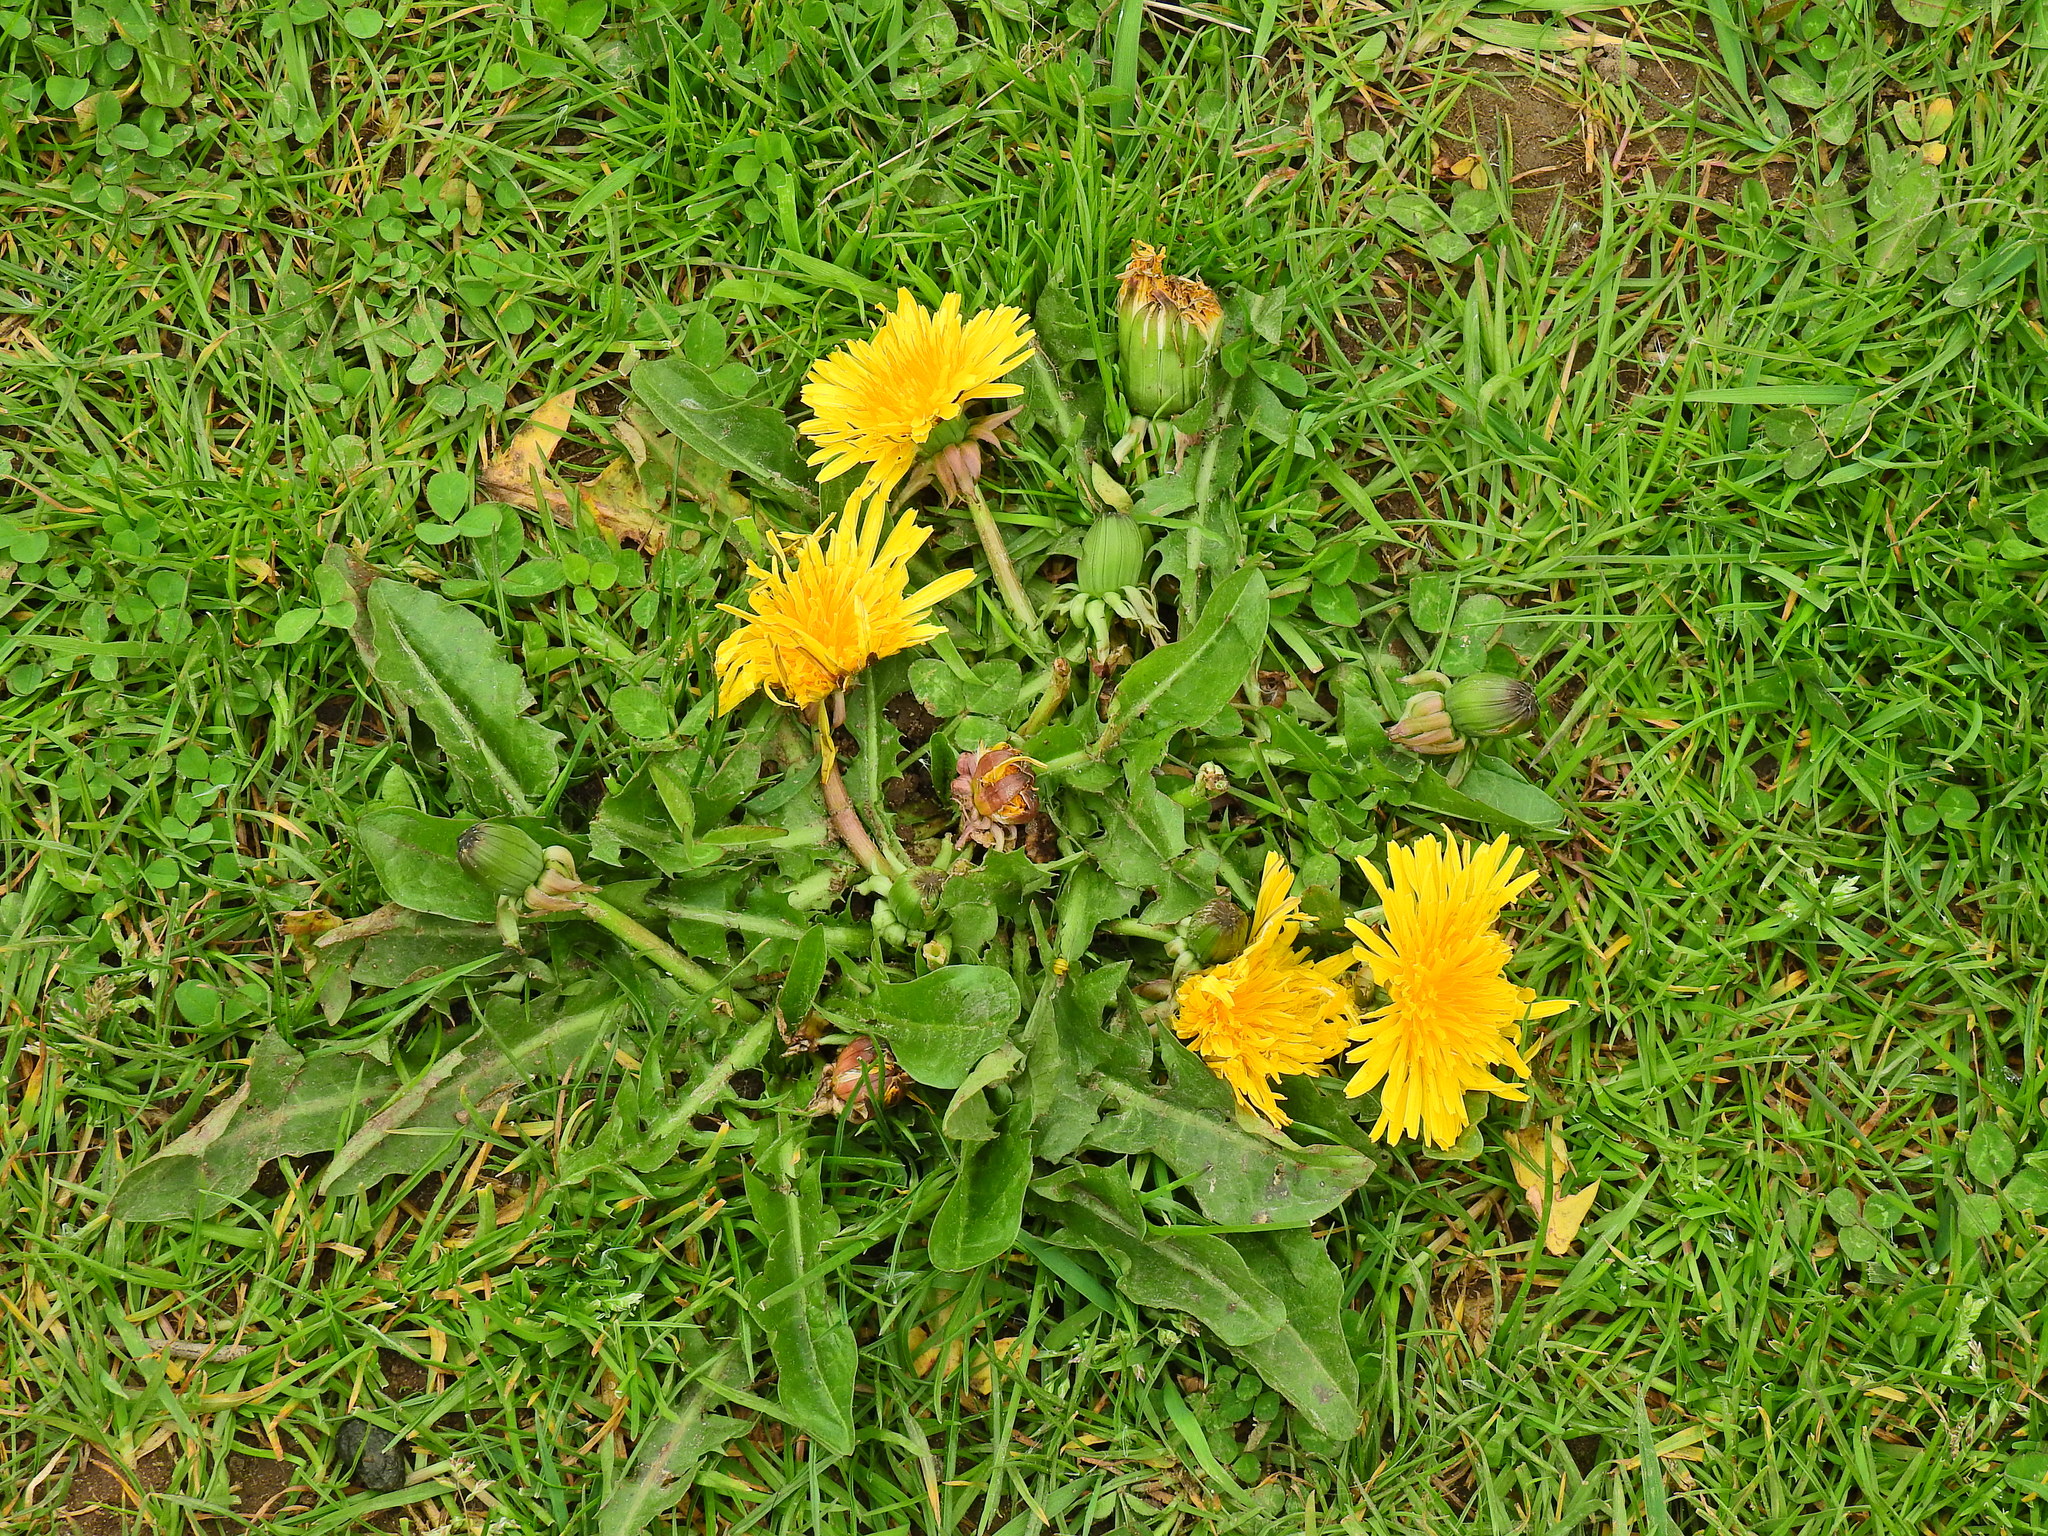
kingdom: Plantae
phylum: Tracheophyta
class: Magnoliopsida
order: Asterales
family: Asteraceae
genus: Taraxacum
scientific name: Taraxacum officinale
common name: Common dandelion
